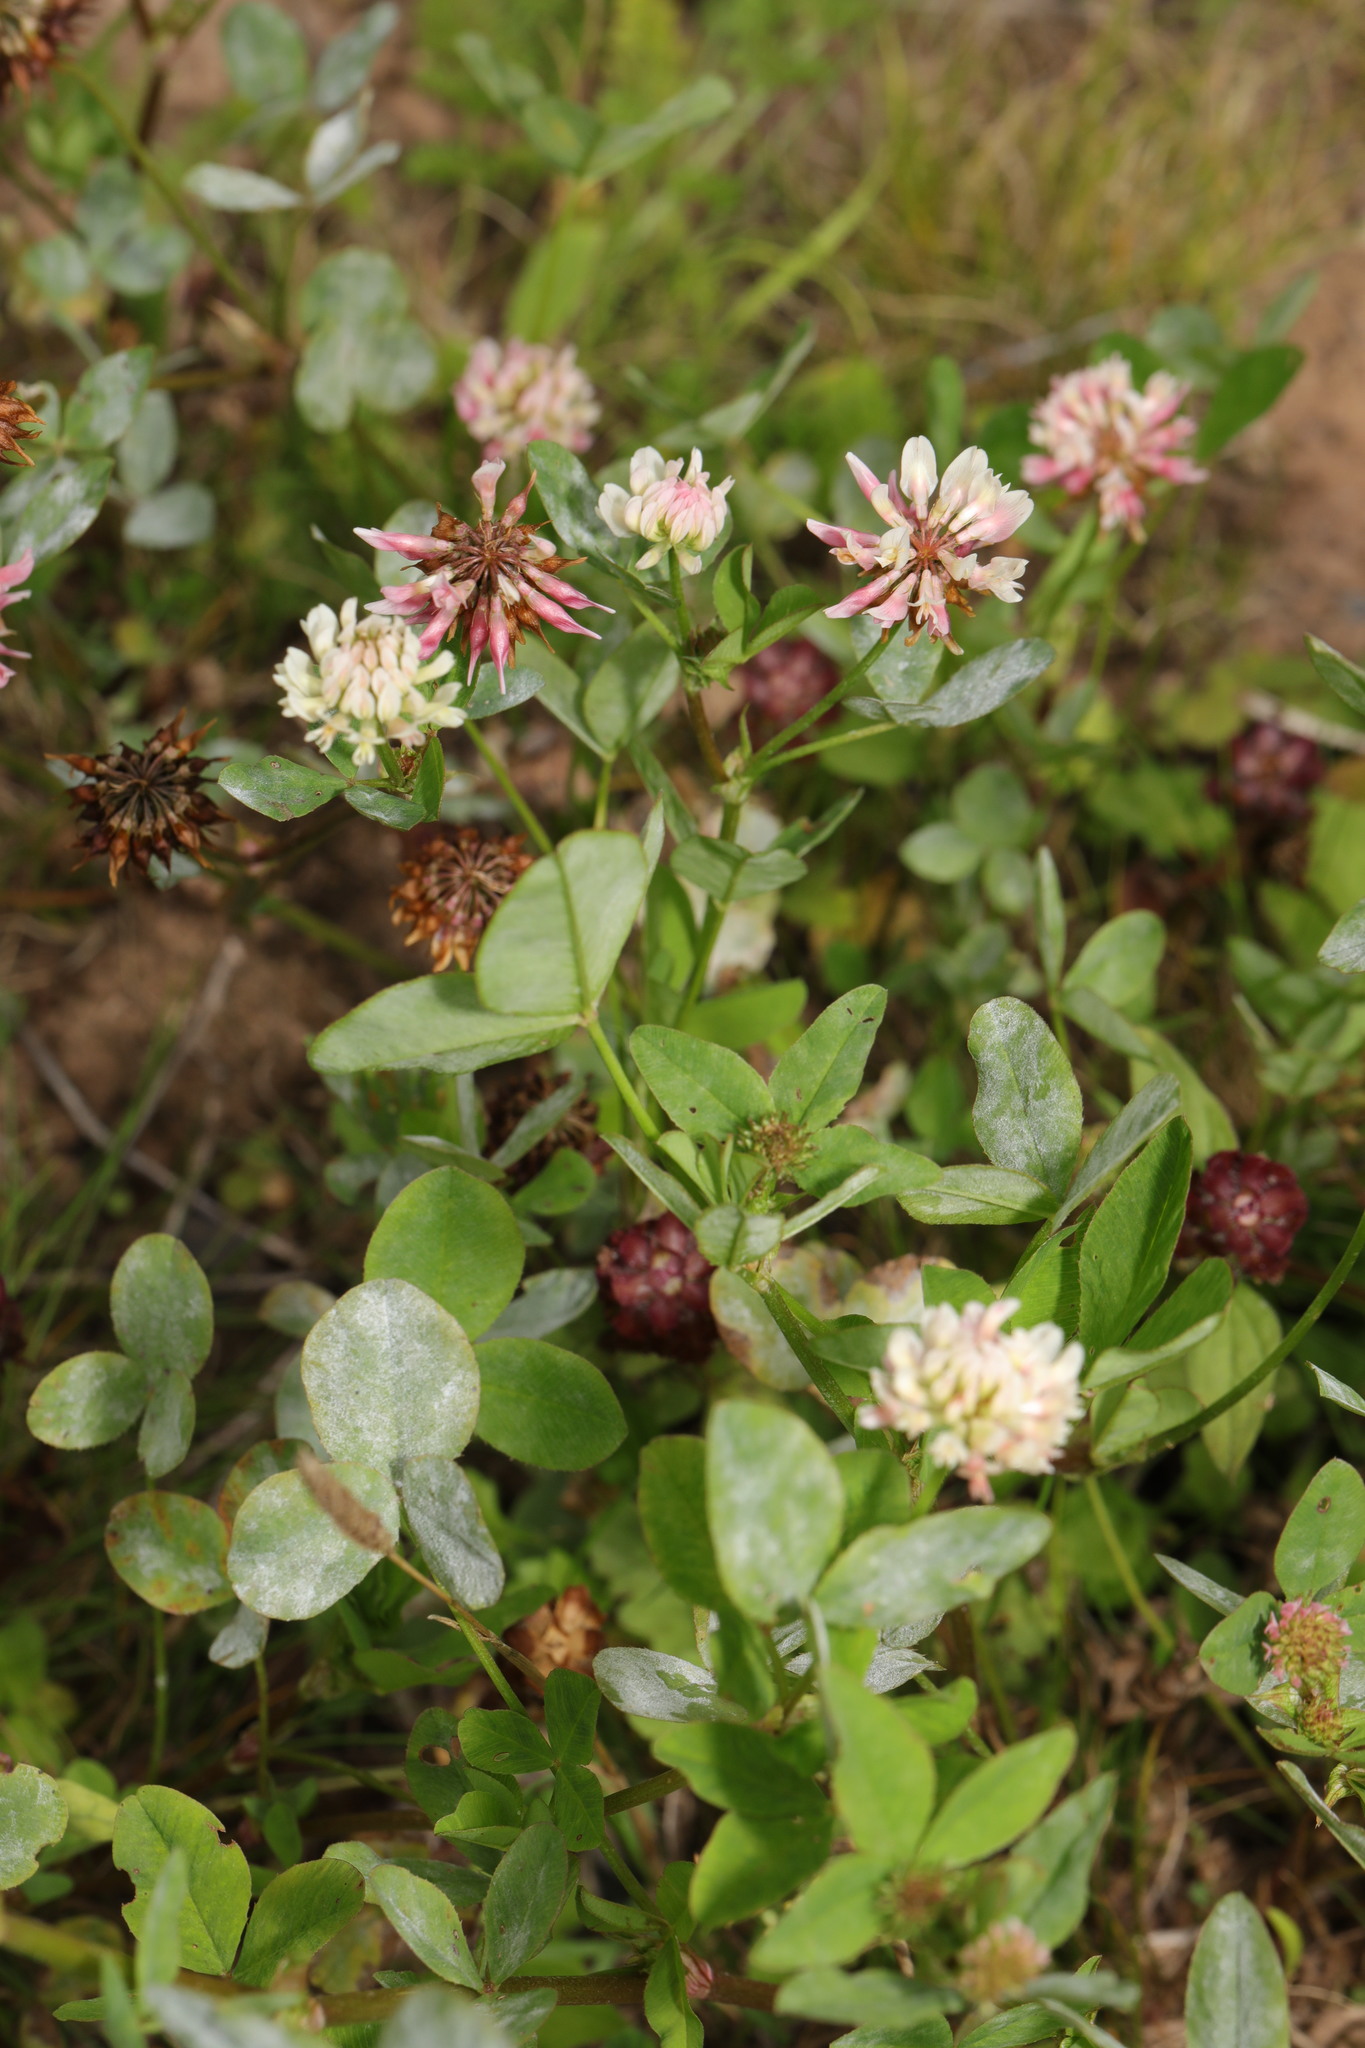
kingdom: Plantae
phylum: Tracheophyta
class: Magnoliopsida
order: Fabales
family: Fabaceae
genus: Trifolium
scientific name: Trifolium hybridum
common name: Alsike clover
